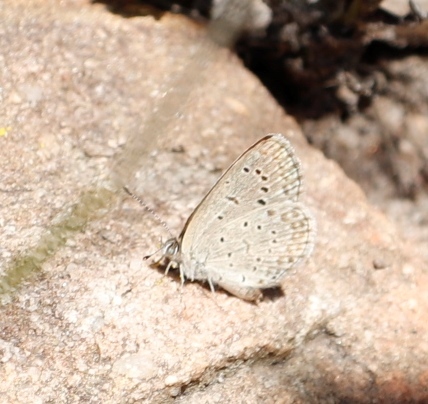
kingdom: Animalia
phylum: Arthropoda
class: Insecta
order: Lepidoptera
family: Lycaenidae
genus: Zizeeria
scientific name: Zizeeria knysna
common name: African grass blue
